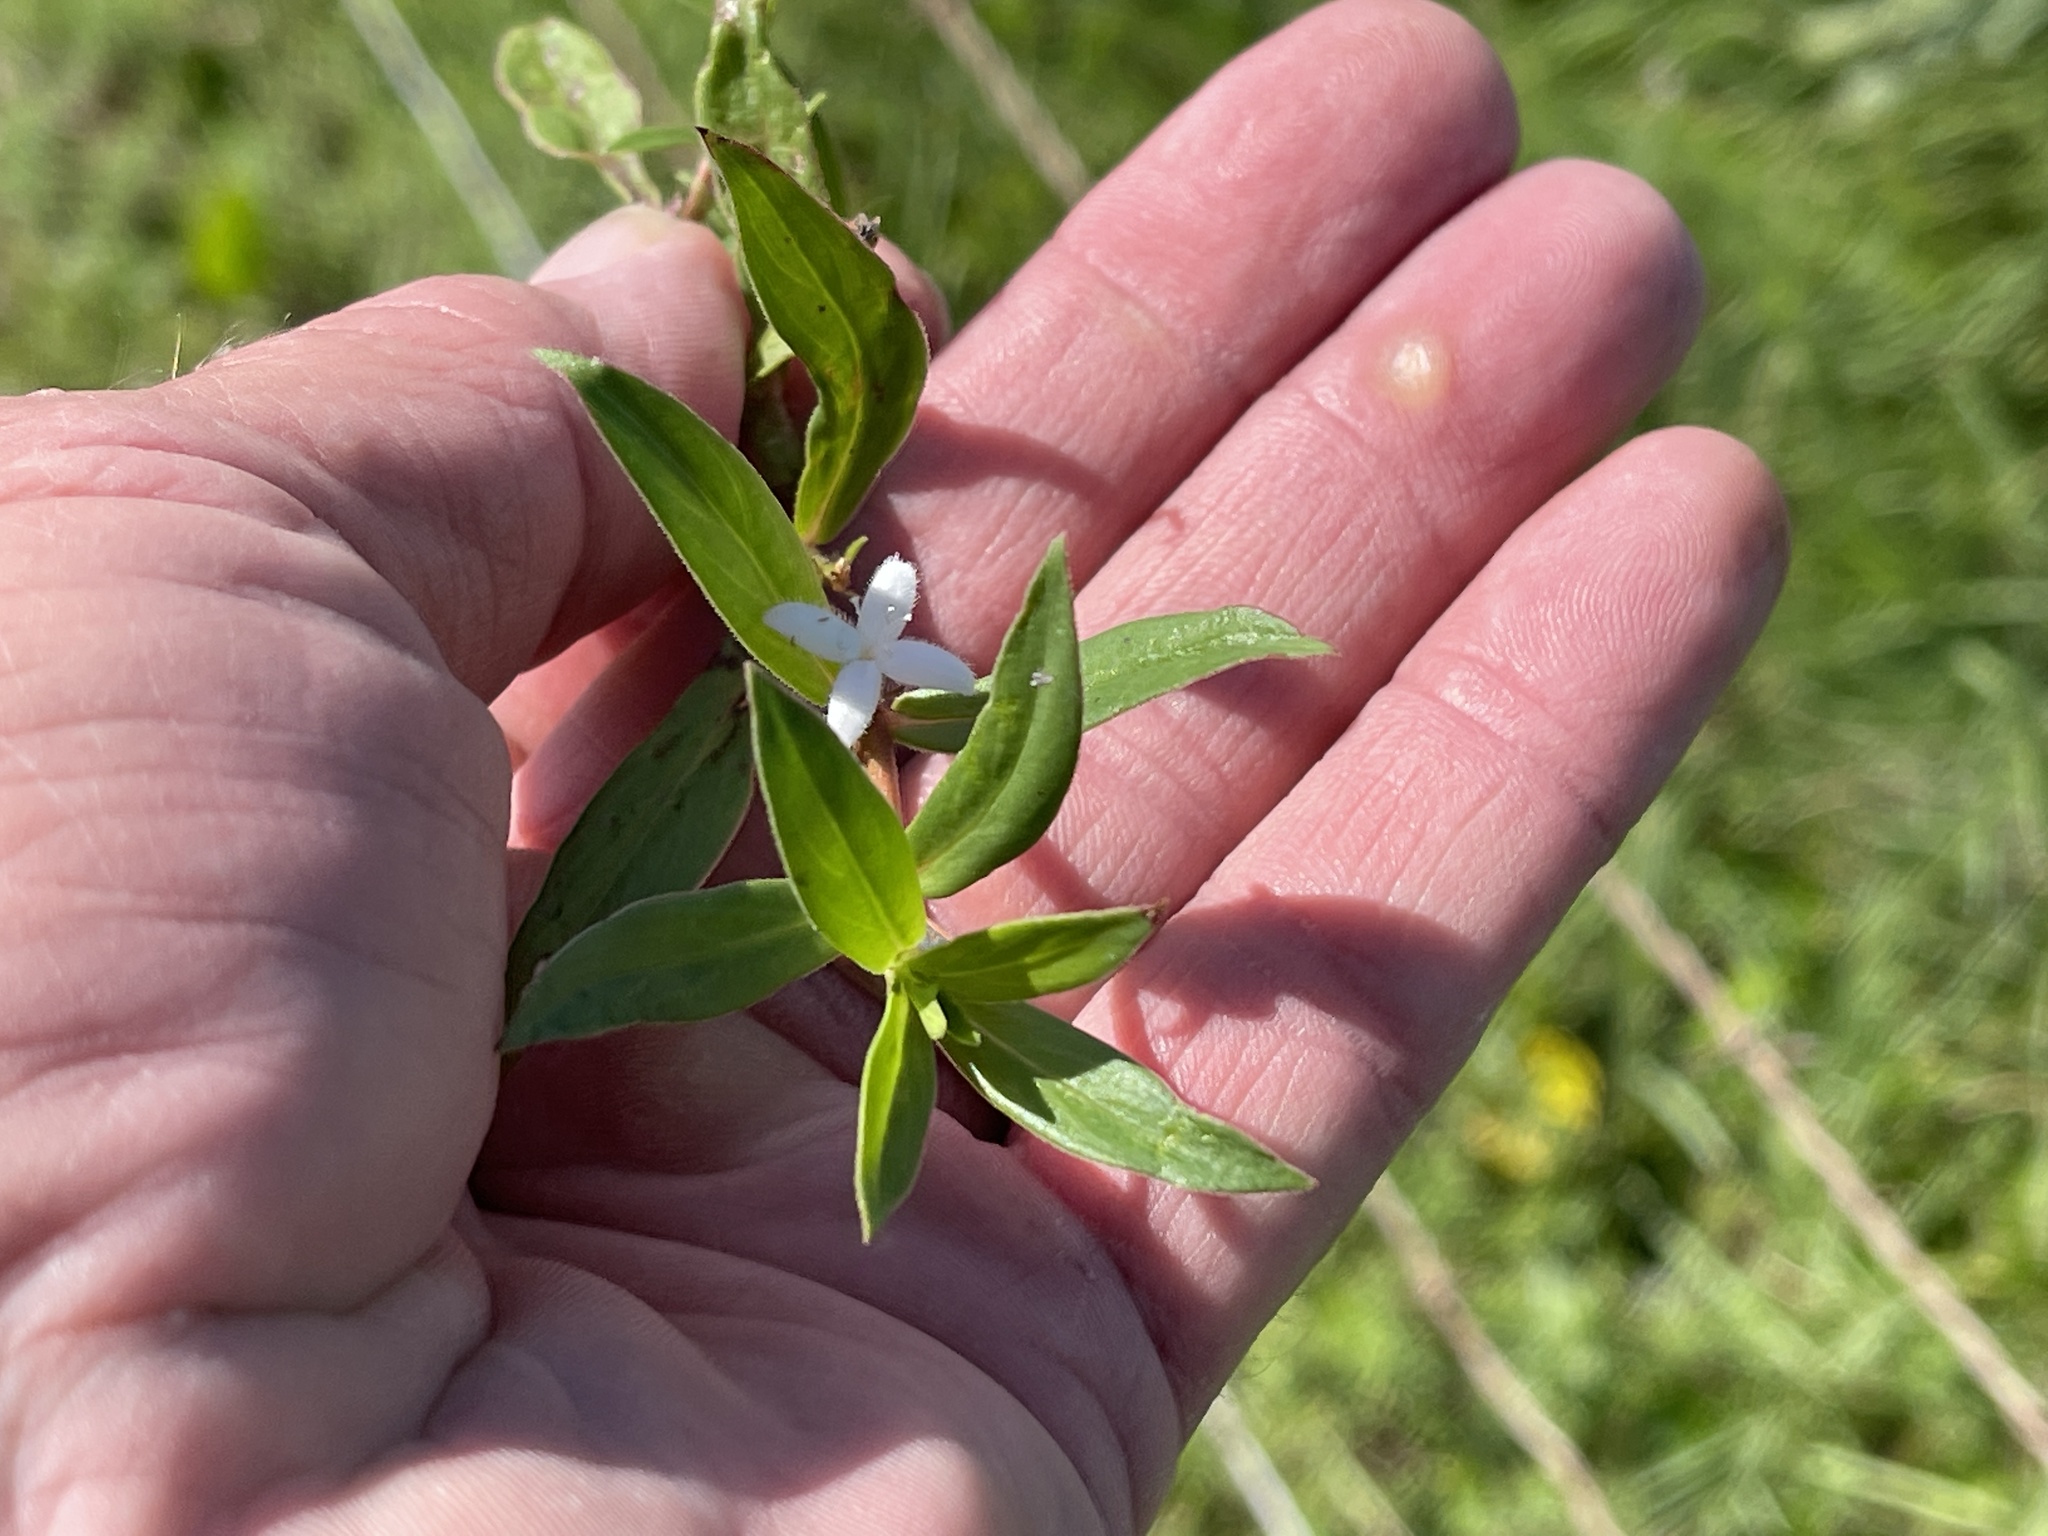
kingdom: Plantae
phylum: Tracheophyta
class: Magnoliopsida
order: Gentianales
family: Rubiaceae
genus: Diodia
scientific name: Diodia virginiana
